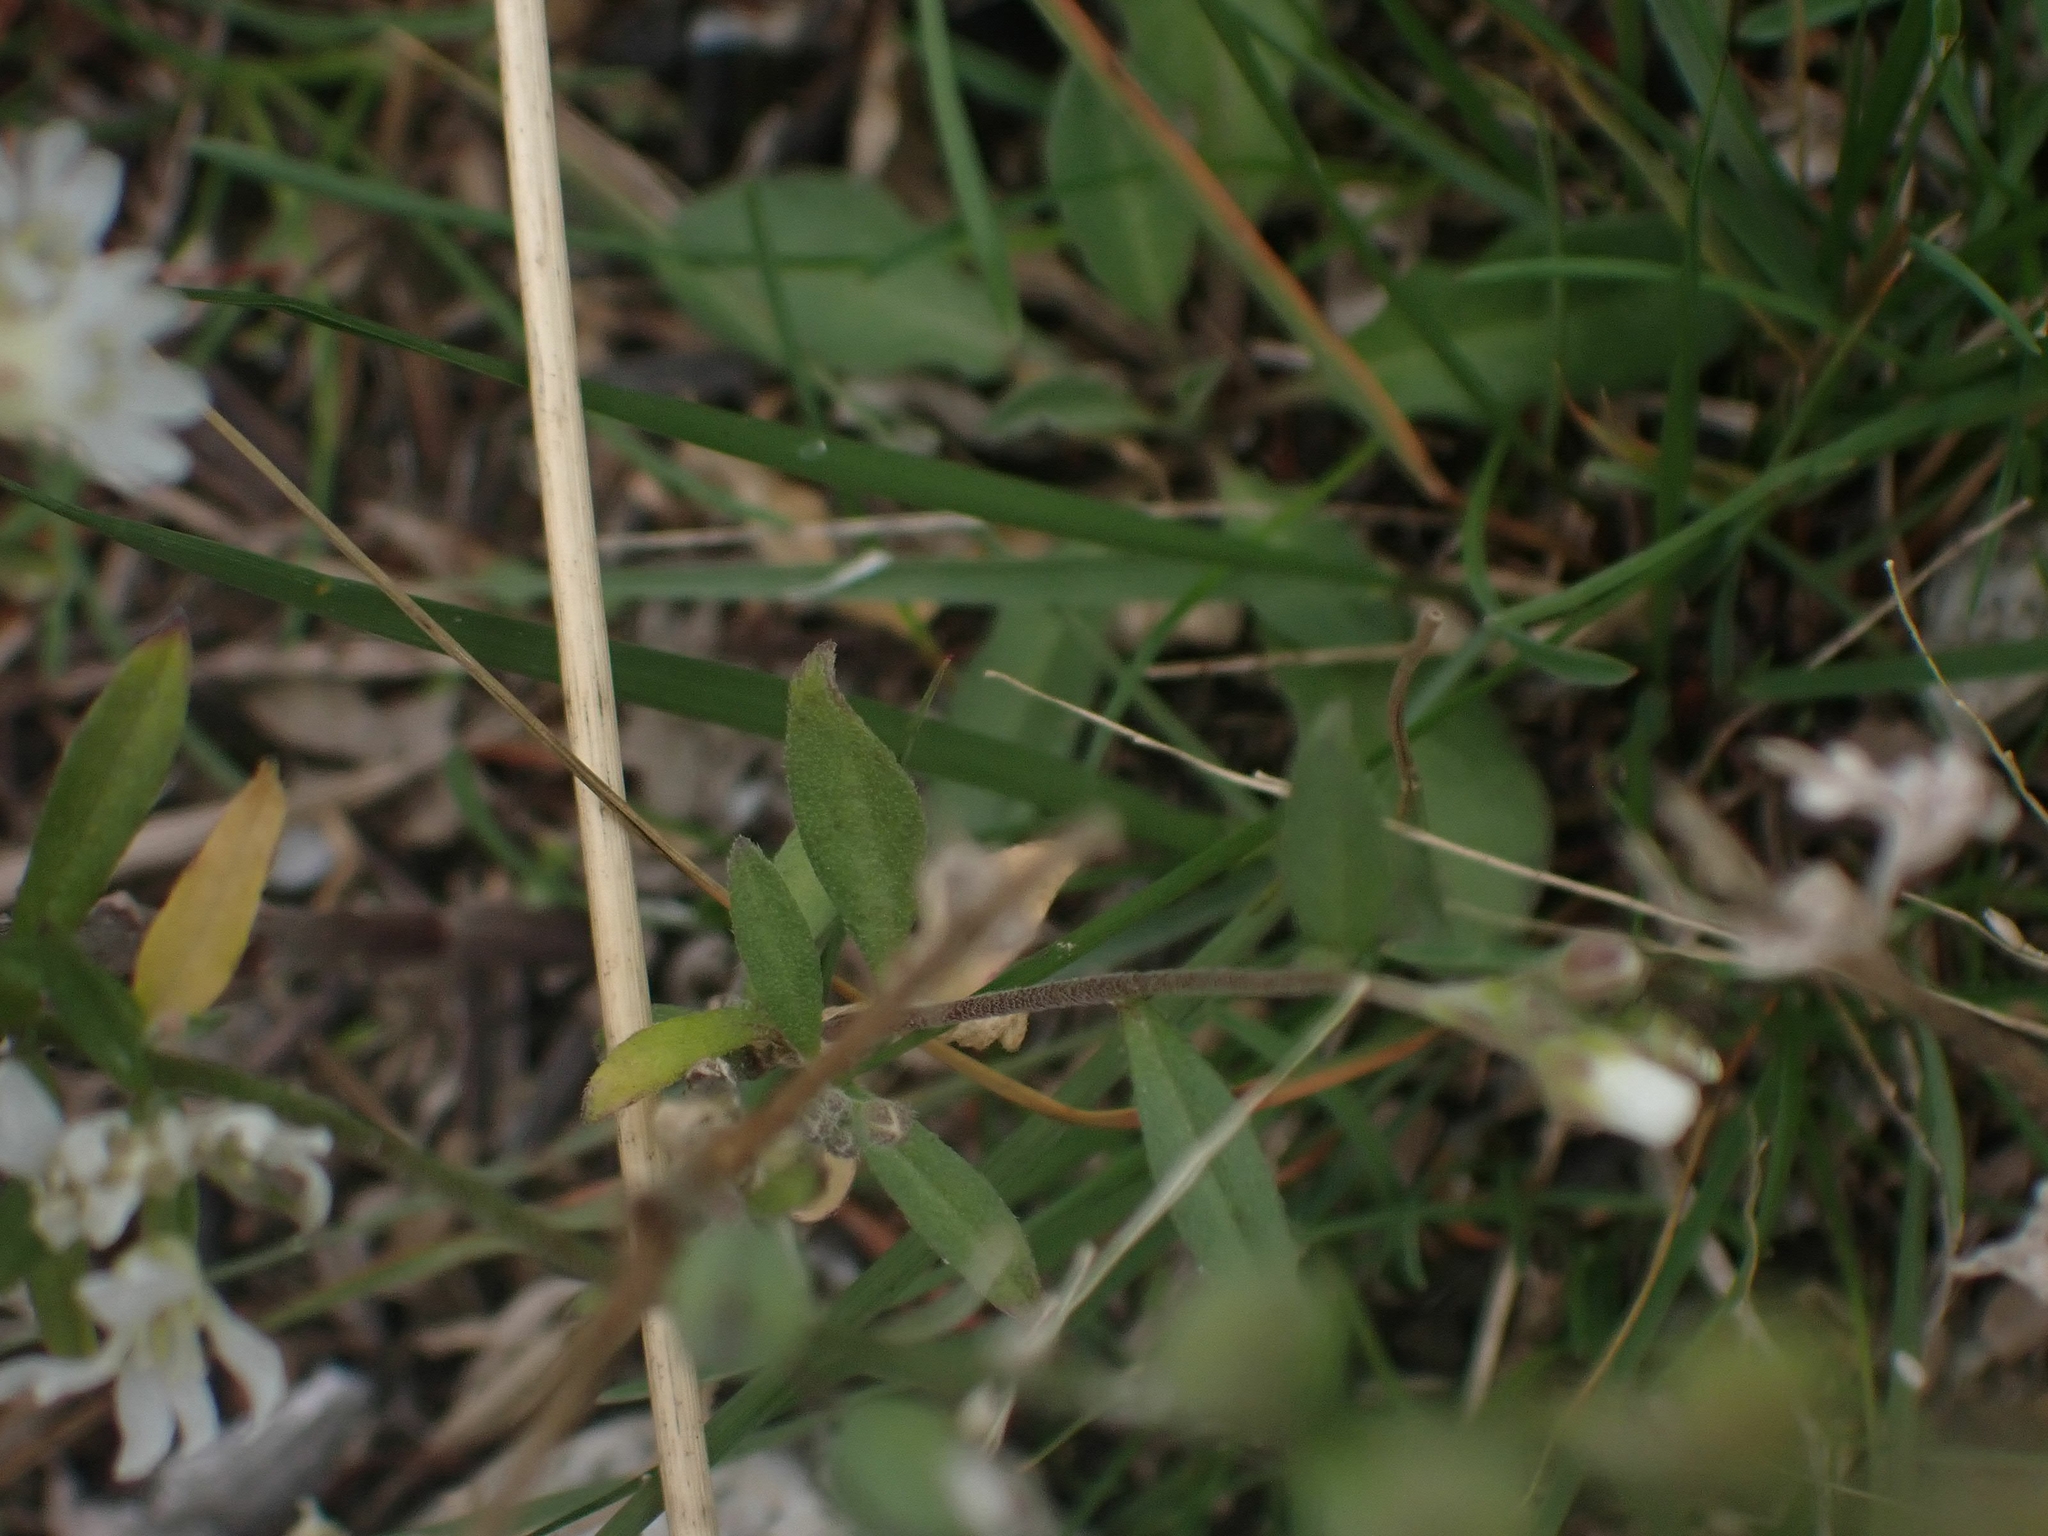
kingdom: Plantae
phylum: Tracheophyta
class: Magnoliopsida
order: Brassicales
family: Brassicaceae
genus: Berteroa
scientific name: Berteroa incana
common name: Hoary alison
